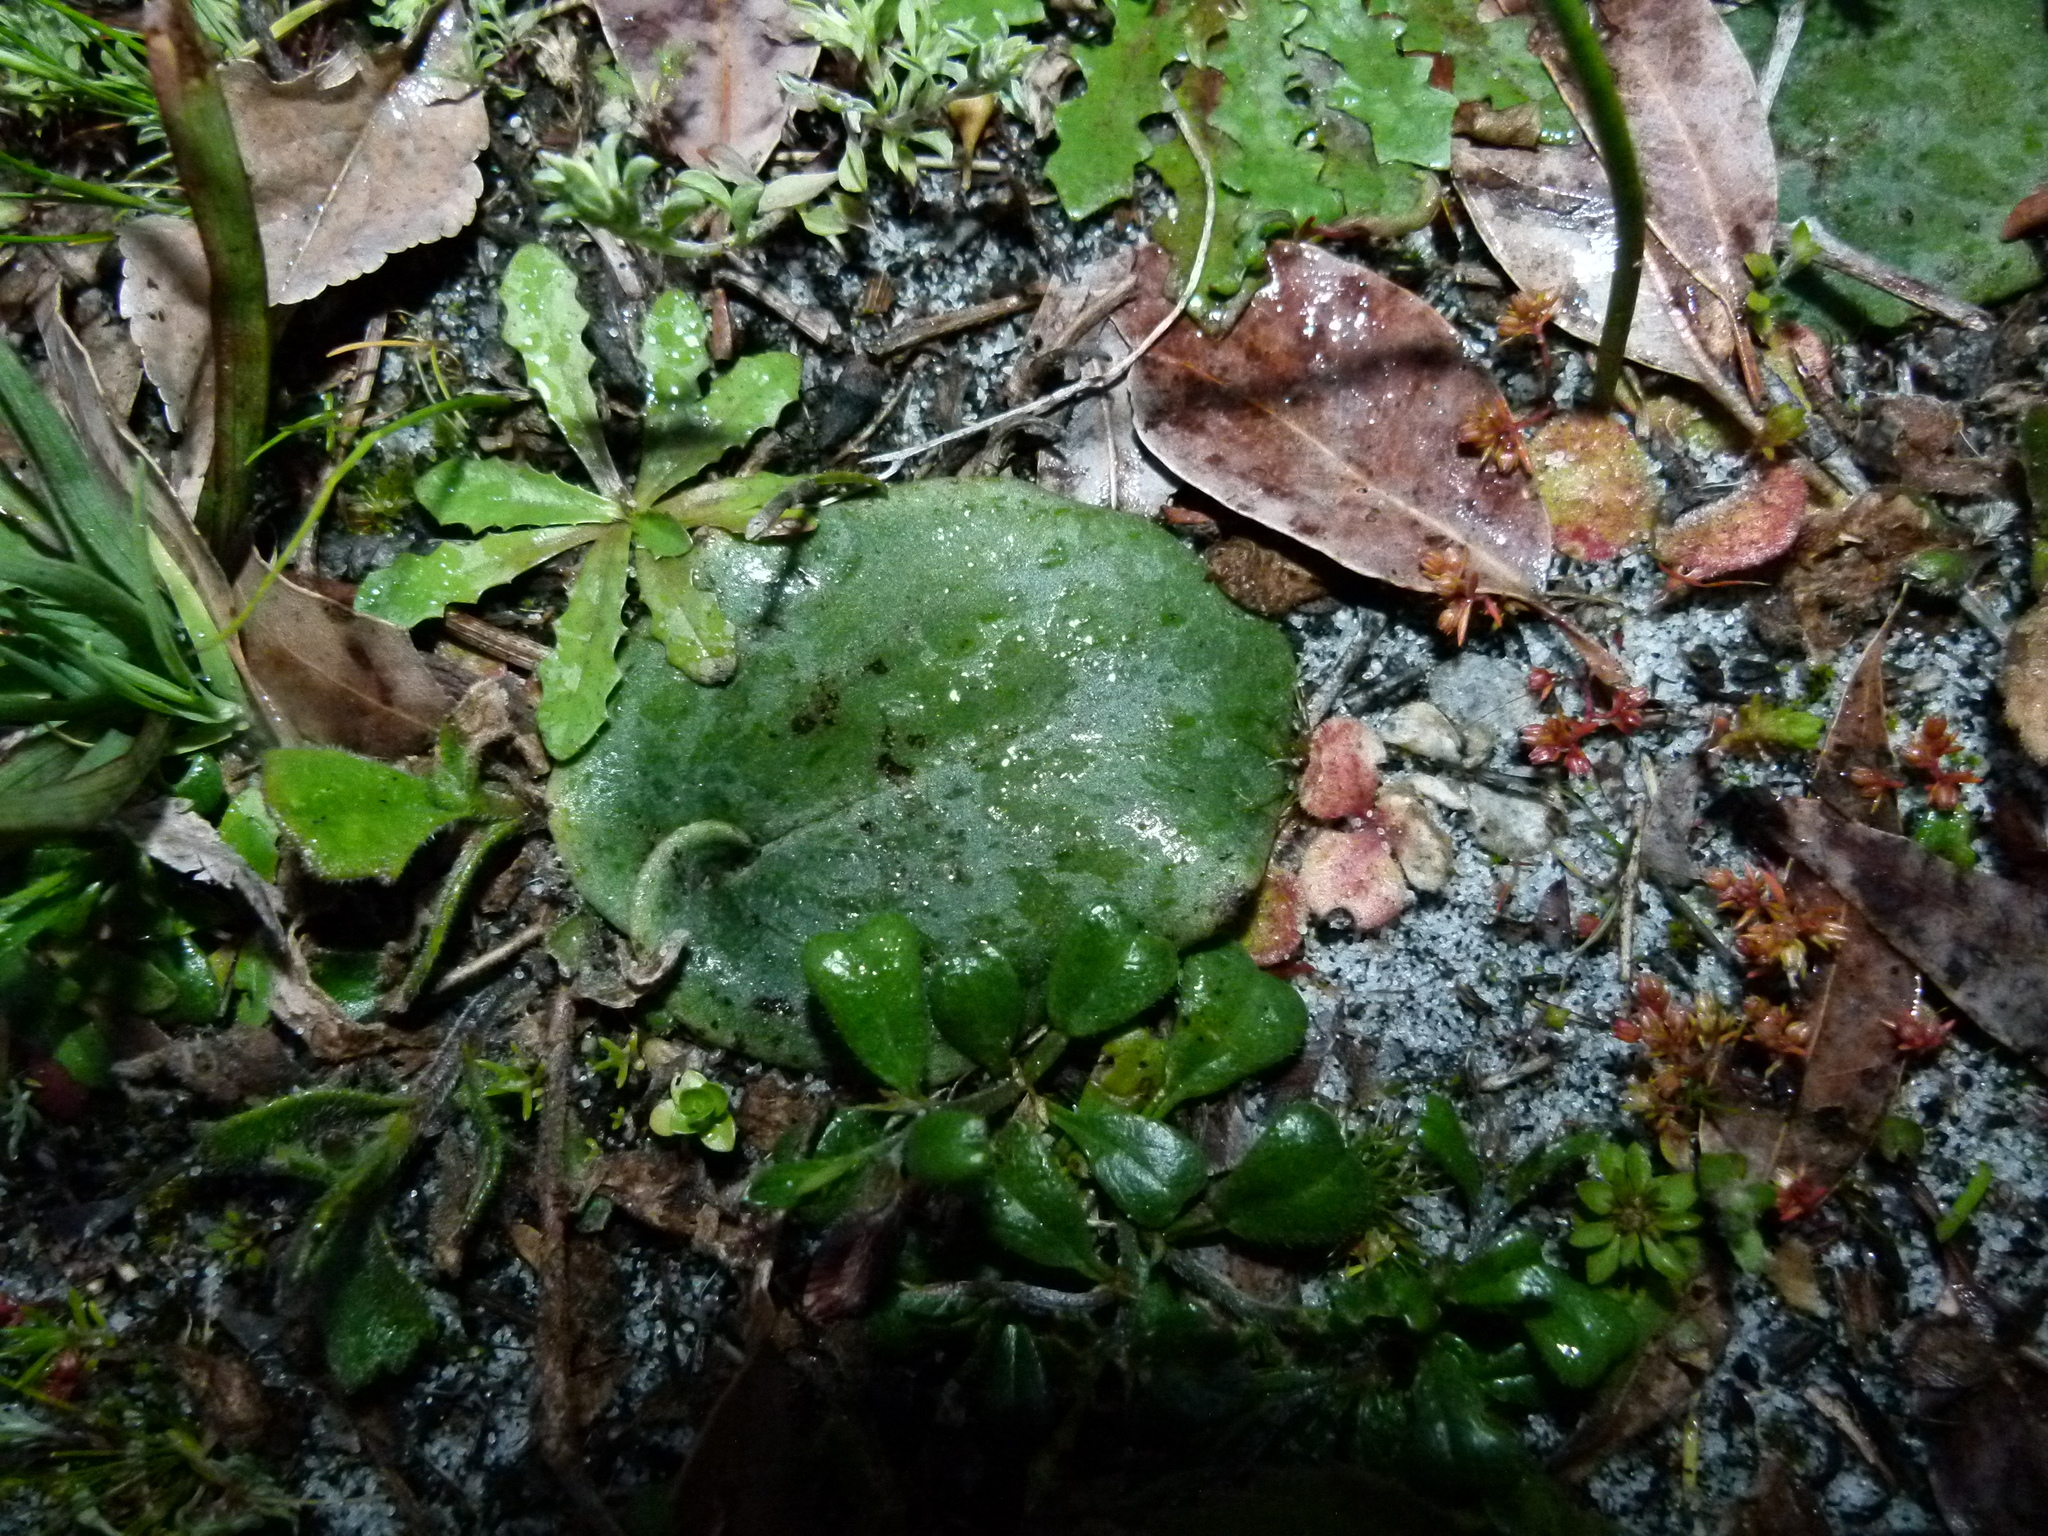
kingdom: Plantae
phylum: Tracheophyta
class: Liliopsida
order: Asparagales
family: Orchidaceae
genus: Pyrorchis
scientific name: Pyrorchis nigricans
